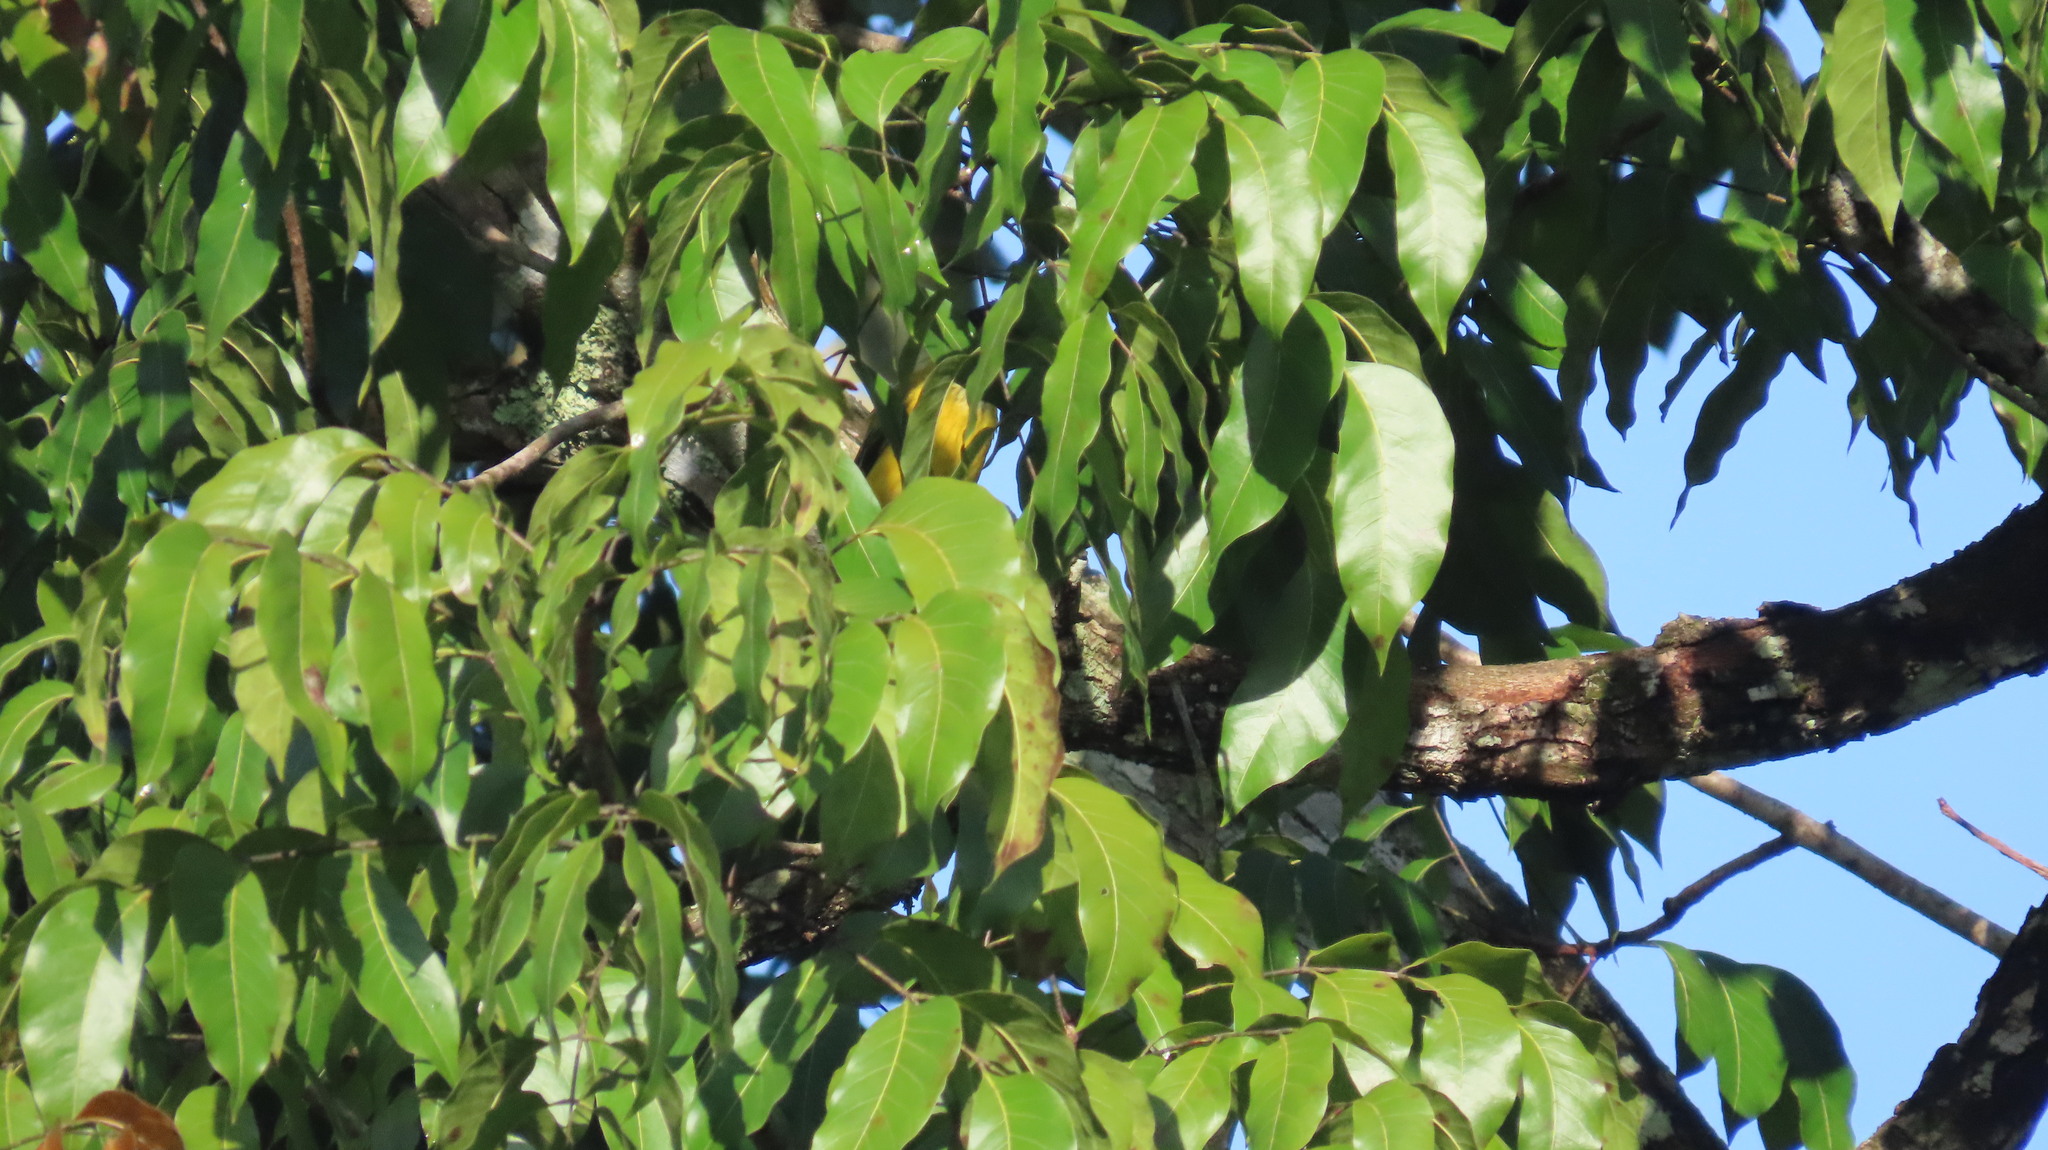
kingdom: Animalia
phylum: Chordata
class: Aves
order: Passeriformes
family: Oriolidae
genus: Oriolus
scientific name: Oriolus xanthornus
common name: Black-hooded oriole
